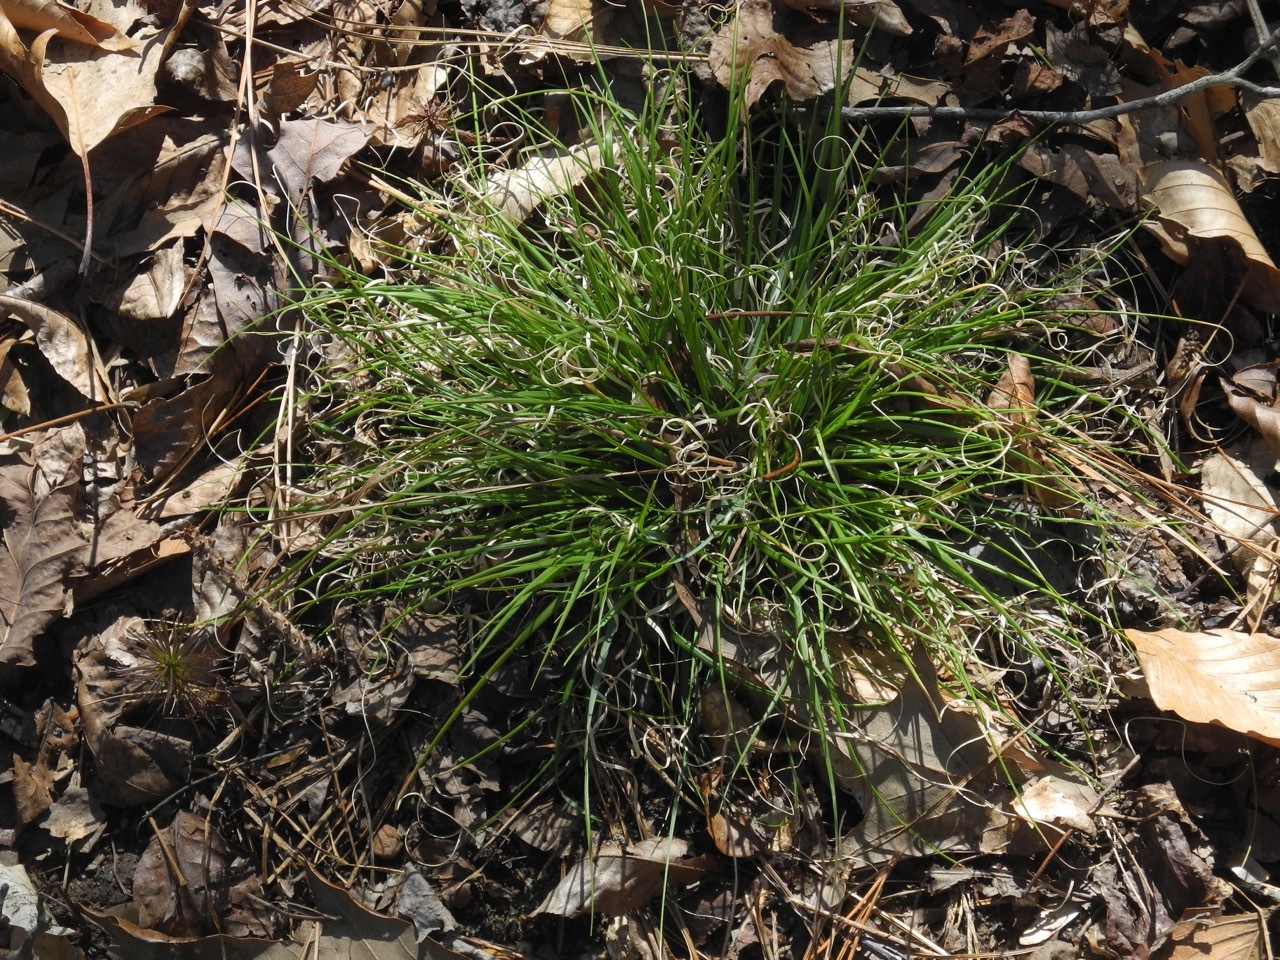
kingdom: Plantae
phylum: Tracheophyta
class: Liliopsida
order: Poales
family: Poaceae
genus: Danthonia
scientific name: Danthonia spicata
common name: Common wild oatgrass
